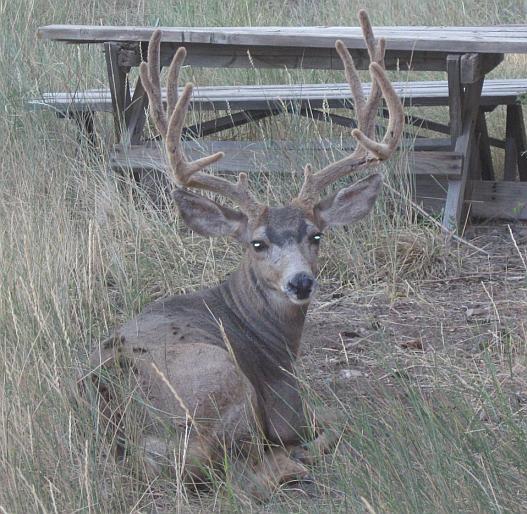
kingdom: Animalia
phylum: Chordata
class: Mammalia
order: Artiodactyla
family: Cervidae
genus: Odocoileus
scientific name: Odocoileus hemionus
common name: Mule deer
